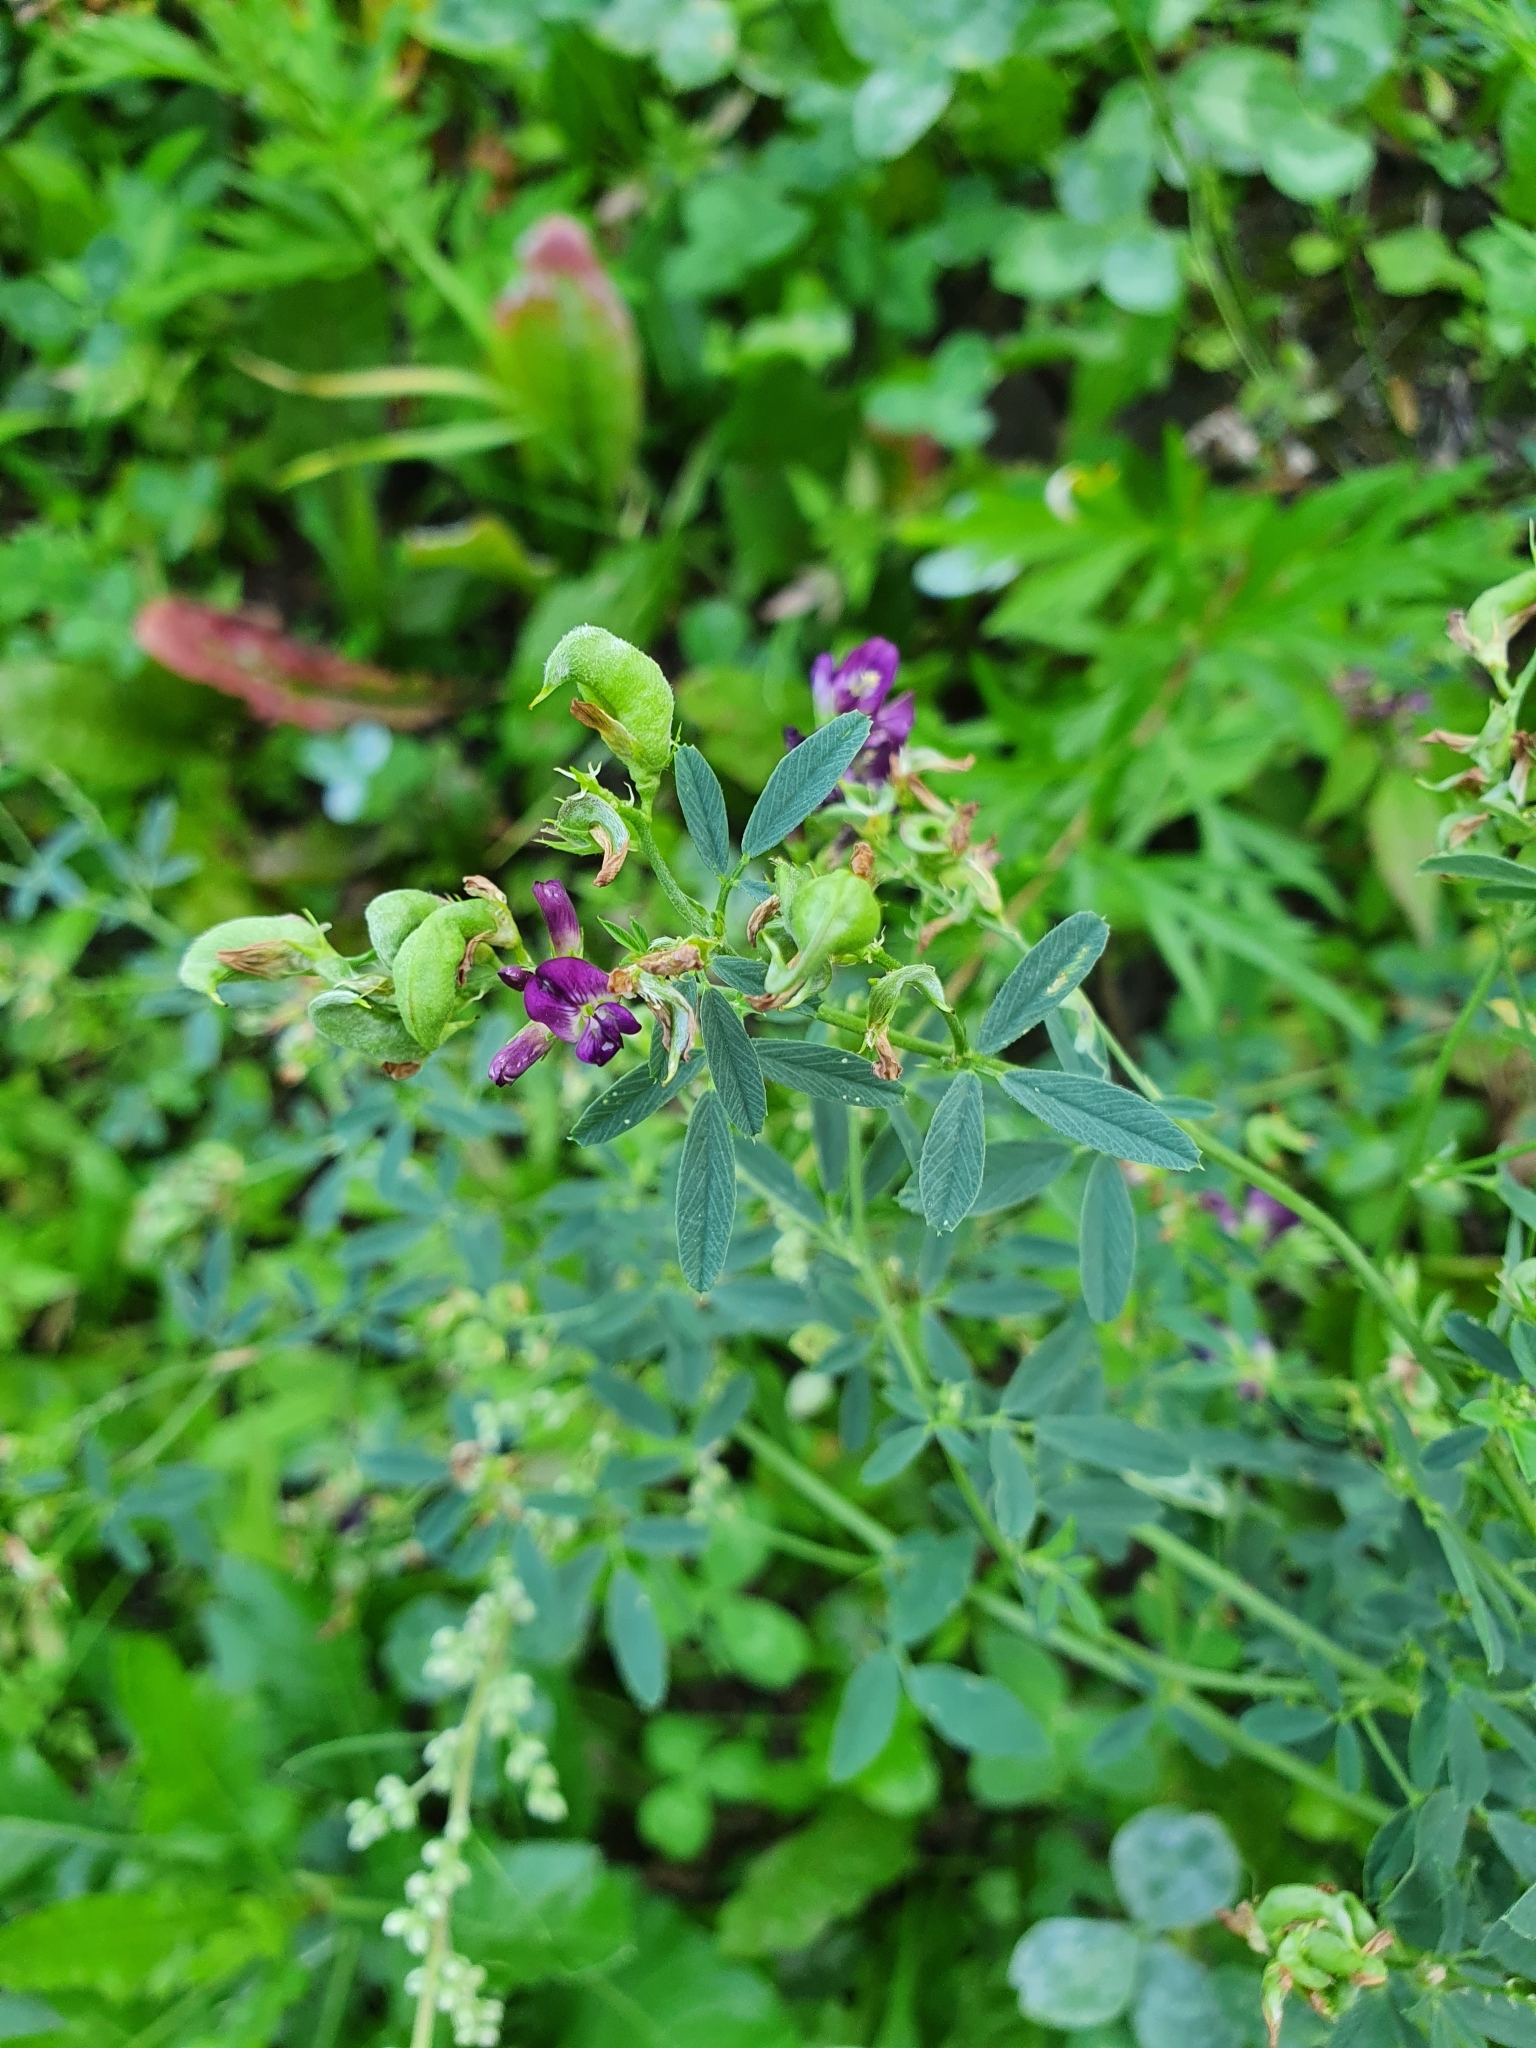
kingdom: Plantae
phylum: Tracheophyta
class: Magnoliopsida
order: Fabales
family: Fabaceae
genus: Medicago
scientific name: Medicago sativa
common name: Alfalfa
